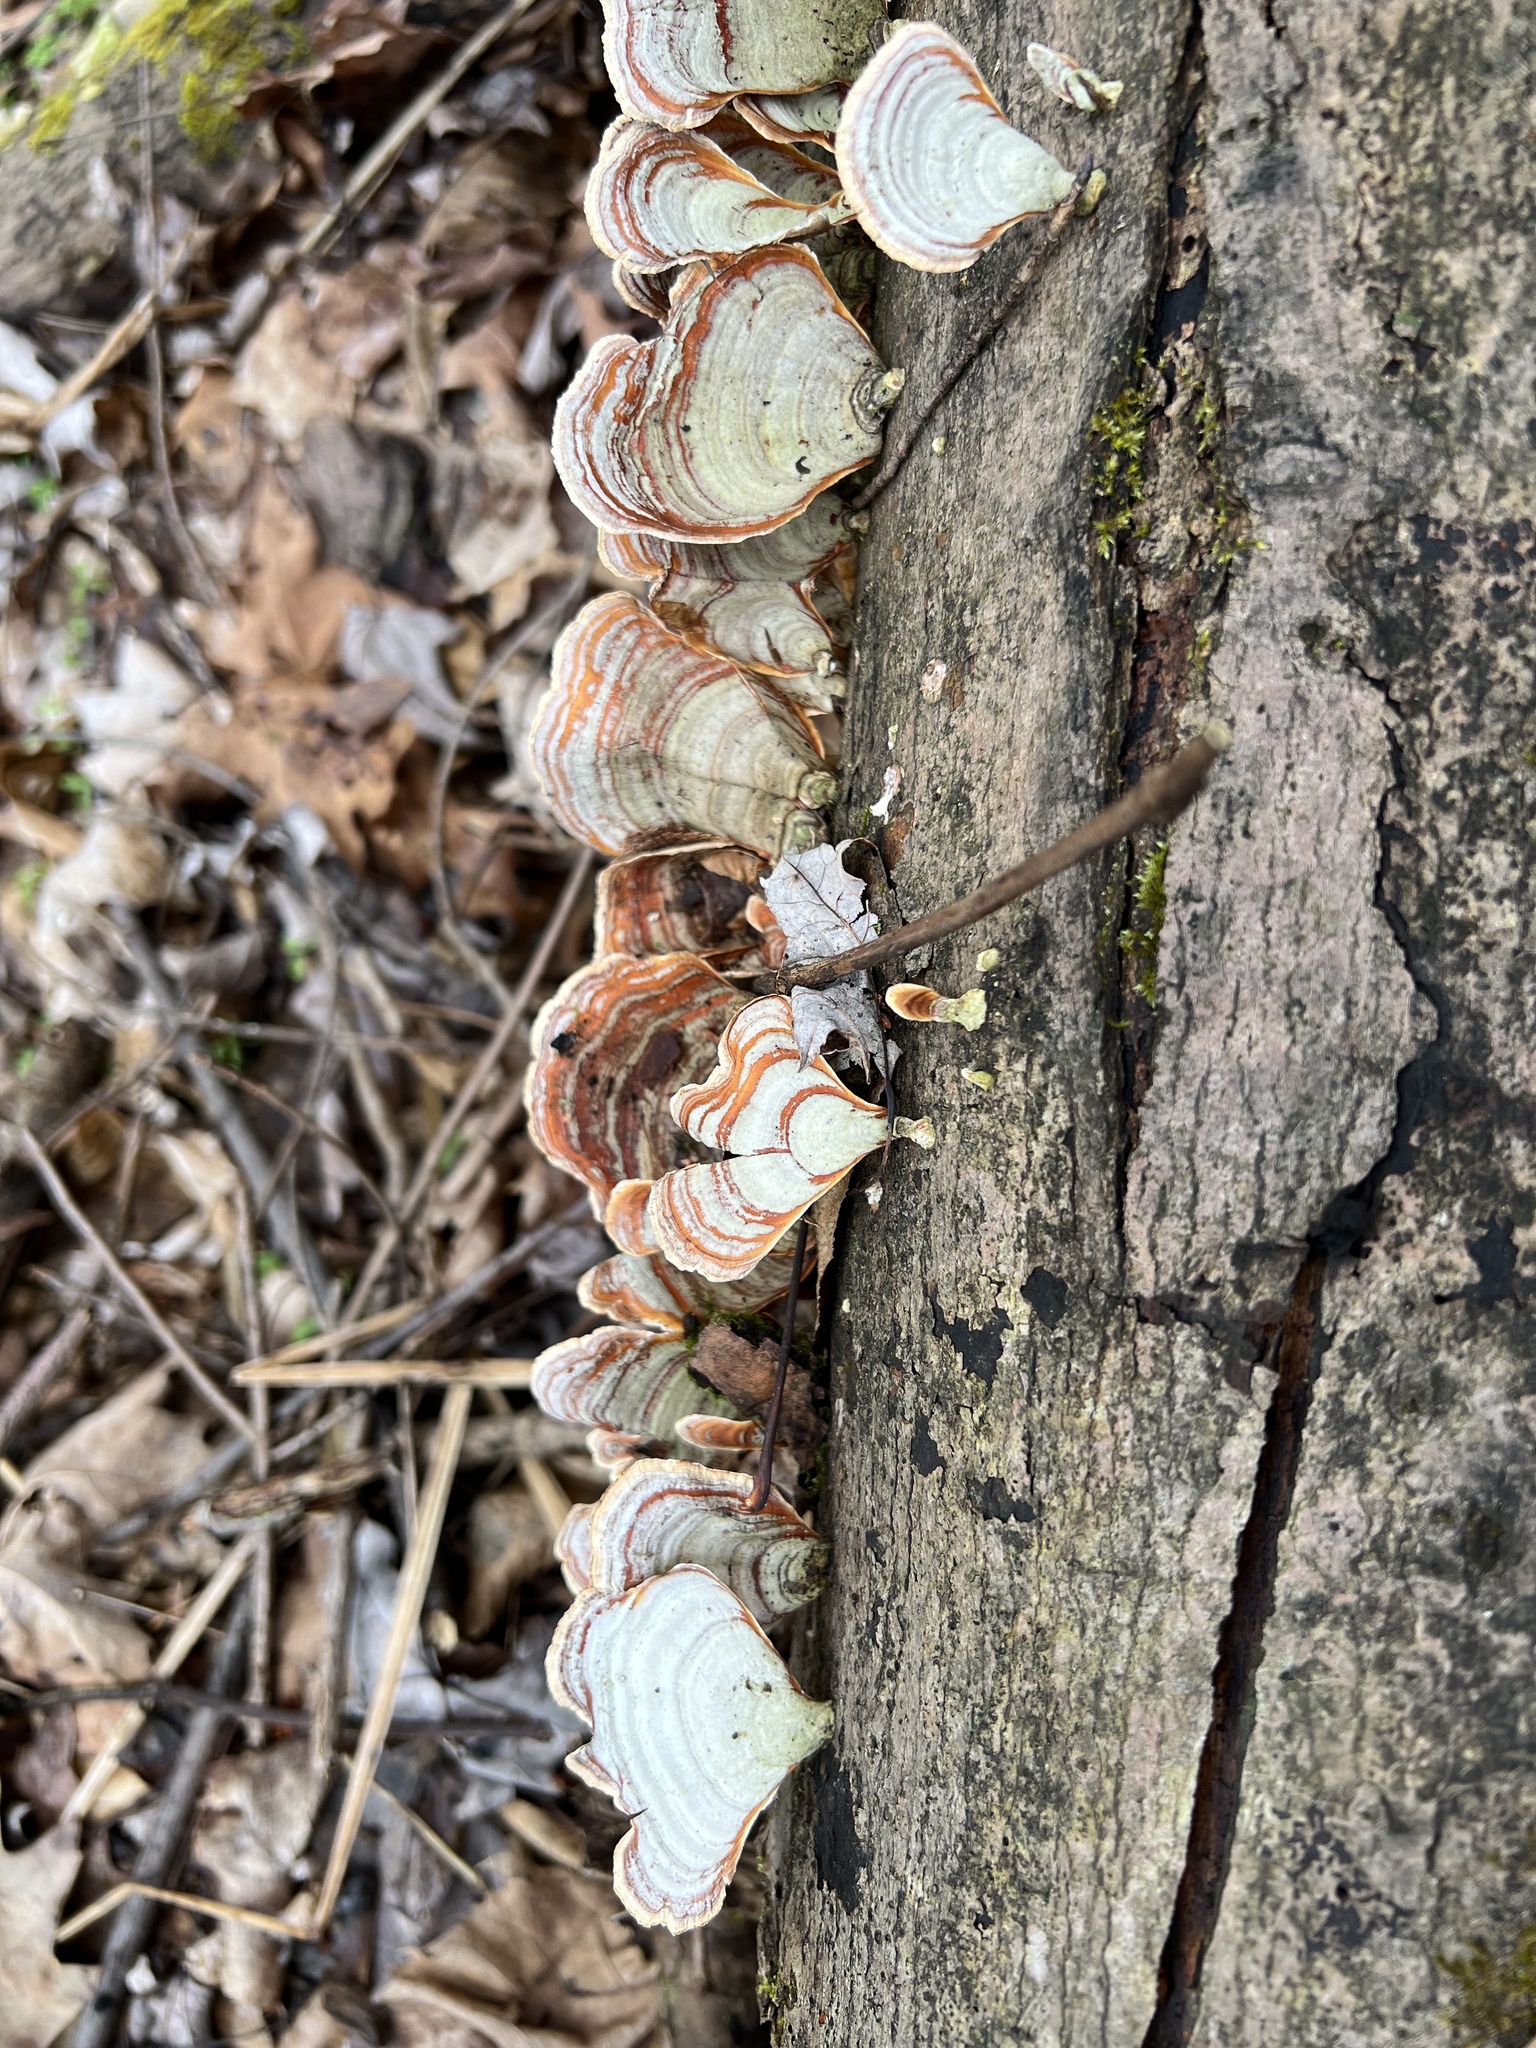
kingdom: Fungi
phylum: Basidiomycota
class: Agaricomycetes
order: Russulales
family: Stereaceae
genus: Stereum
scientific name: Stereum lobatum
